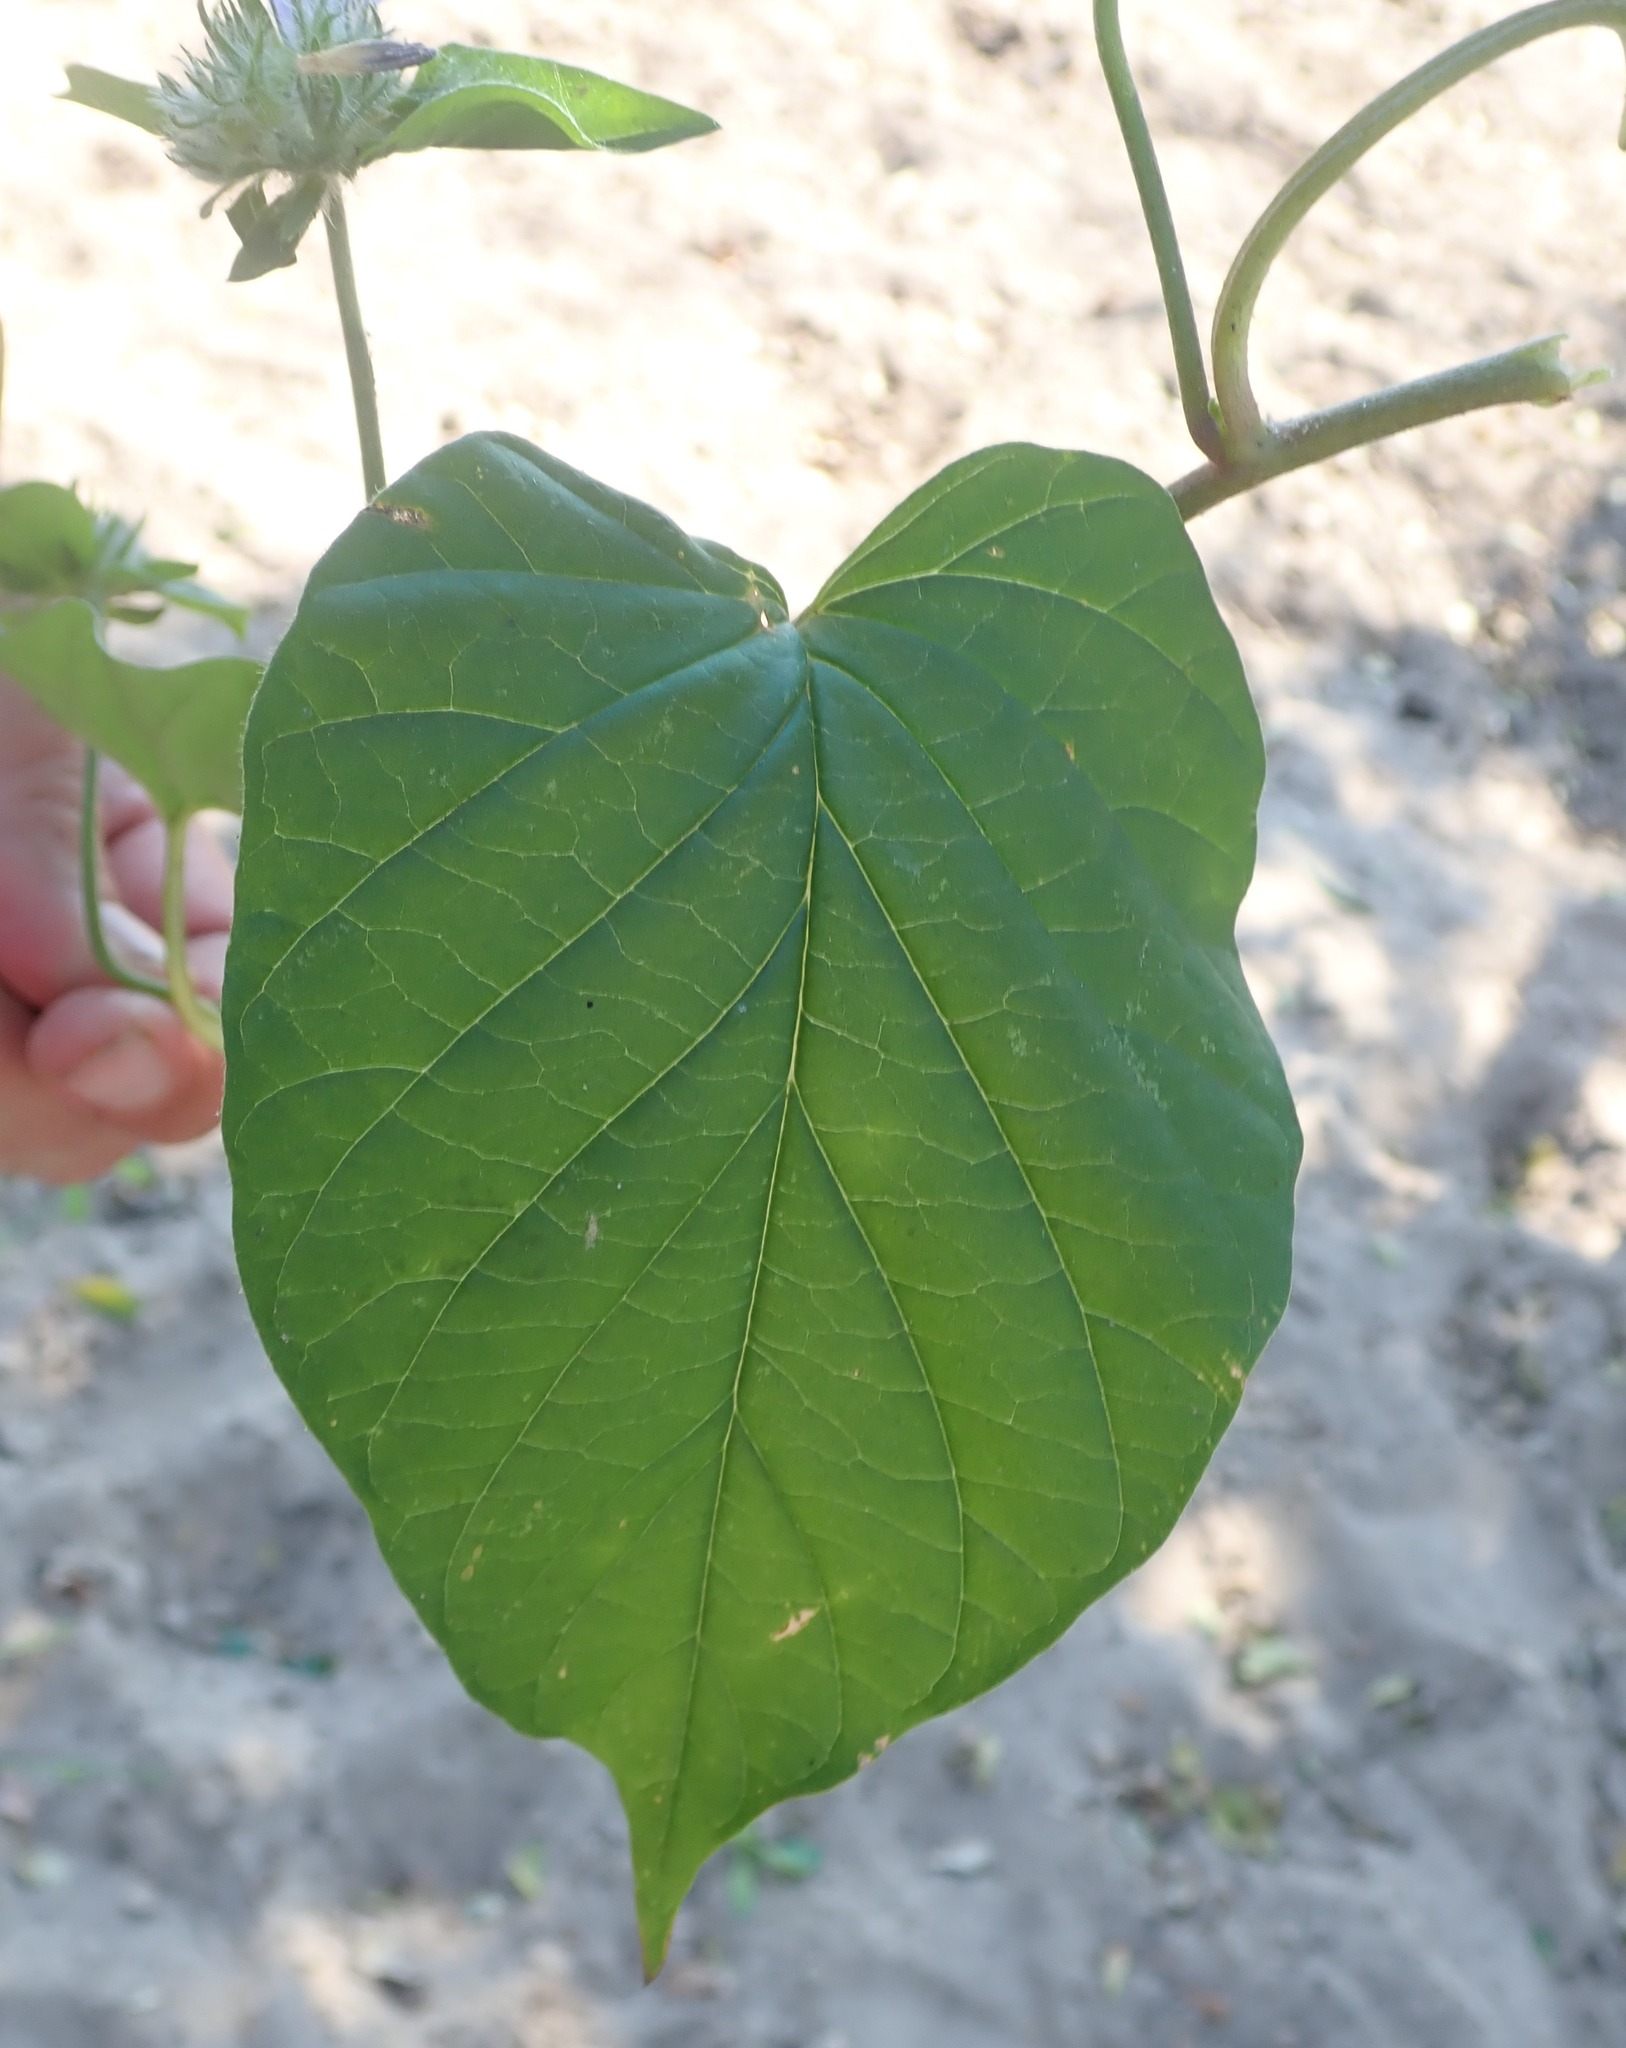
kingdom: Plantae
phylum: Tracheophyta
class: Magnoliopsida
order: Solanales
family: Convolvulaceae
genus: Jacquemontia
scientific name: Jacquemontia tamnifolia
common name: Hairy clustervine
